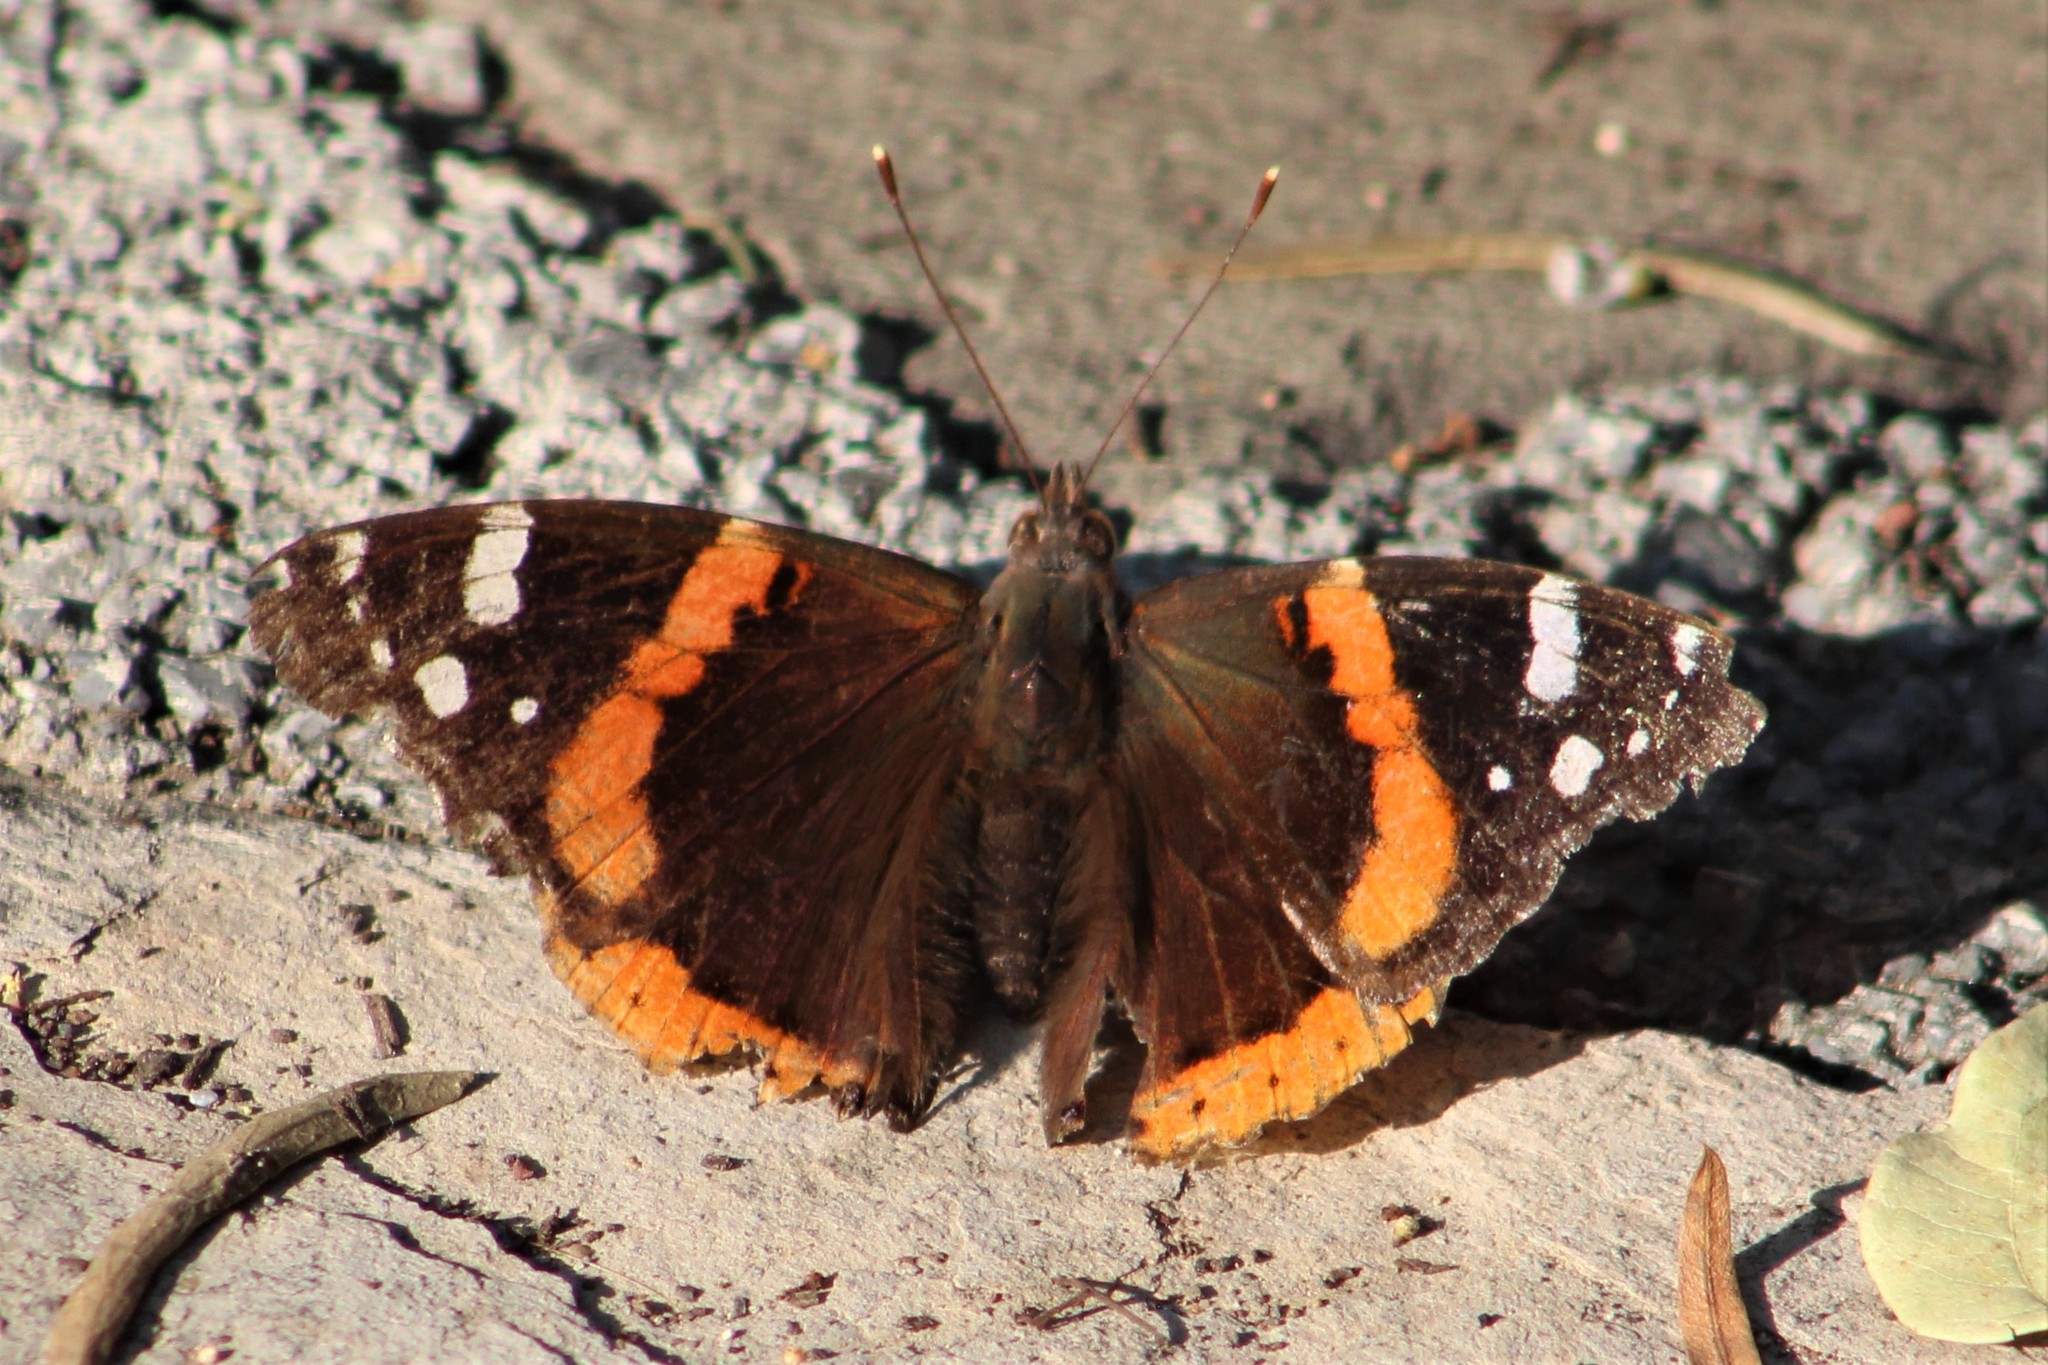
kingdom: Animalia
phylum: Arthropoda
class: Insecta
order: Lepidoptera
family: Nymphalidae
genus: Vanessa
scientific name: Vanessa atalanta
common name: Red admiral
